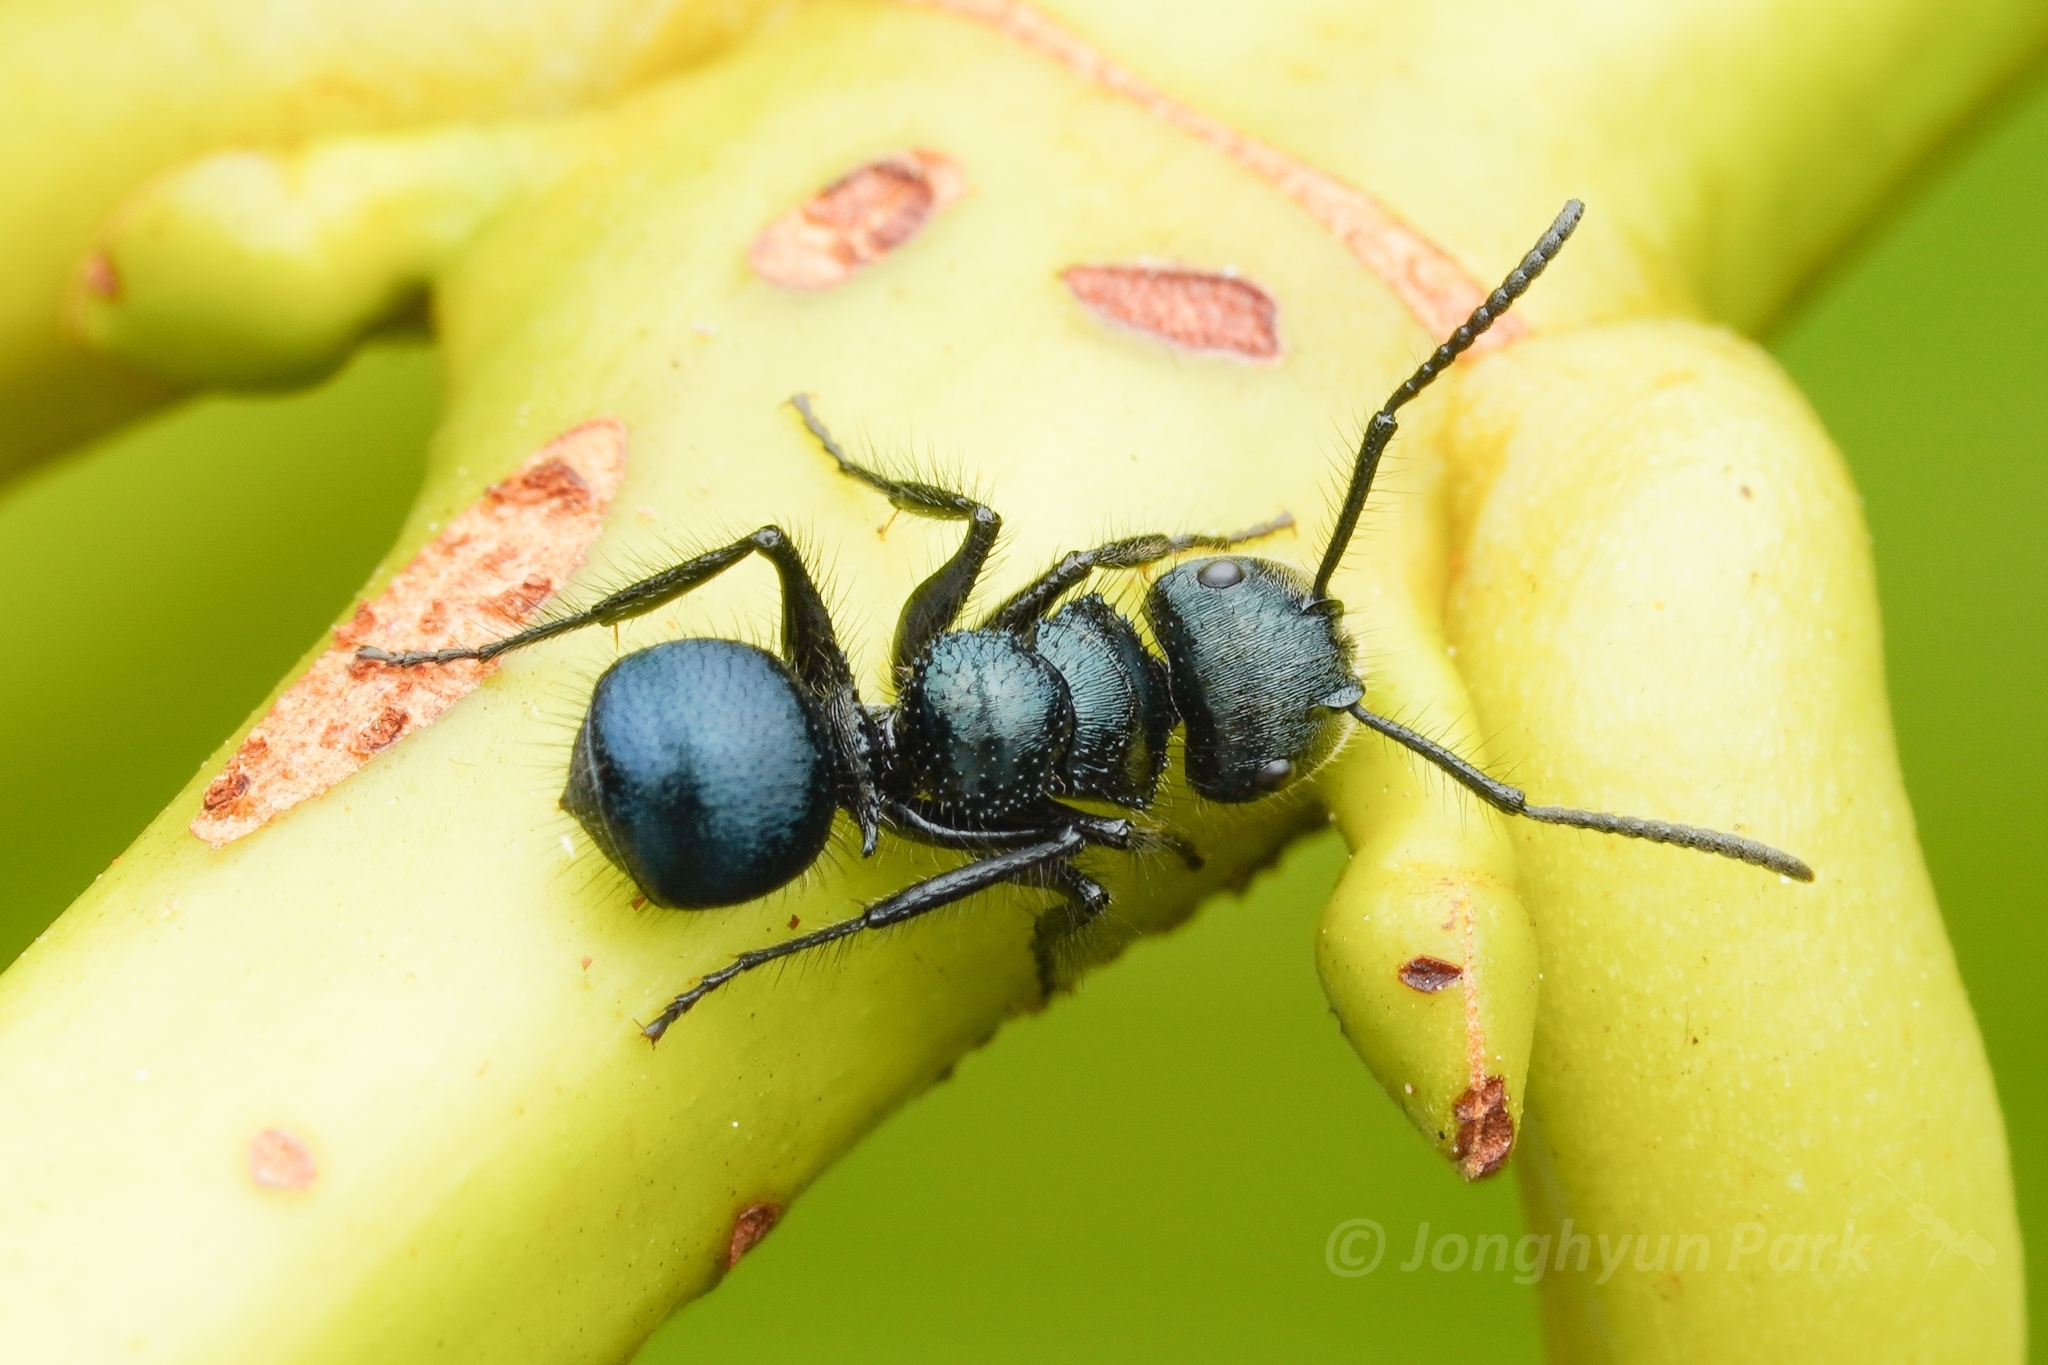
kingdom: Animalia
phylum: Arthropoda
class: Insecta
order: Hymenoptera
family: Formicidae
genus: Echinopla
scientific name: Echinopla densistriata
